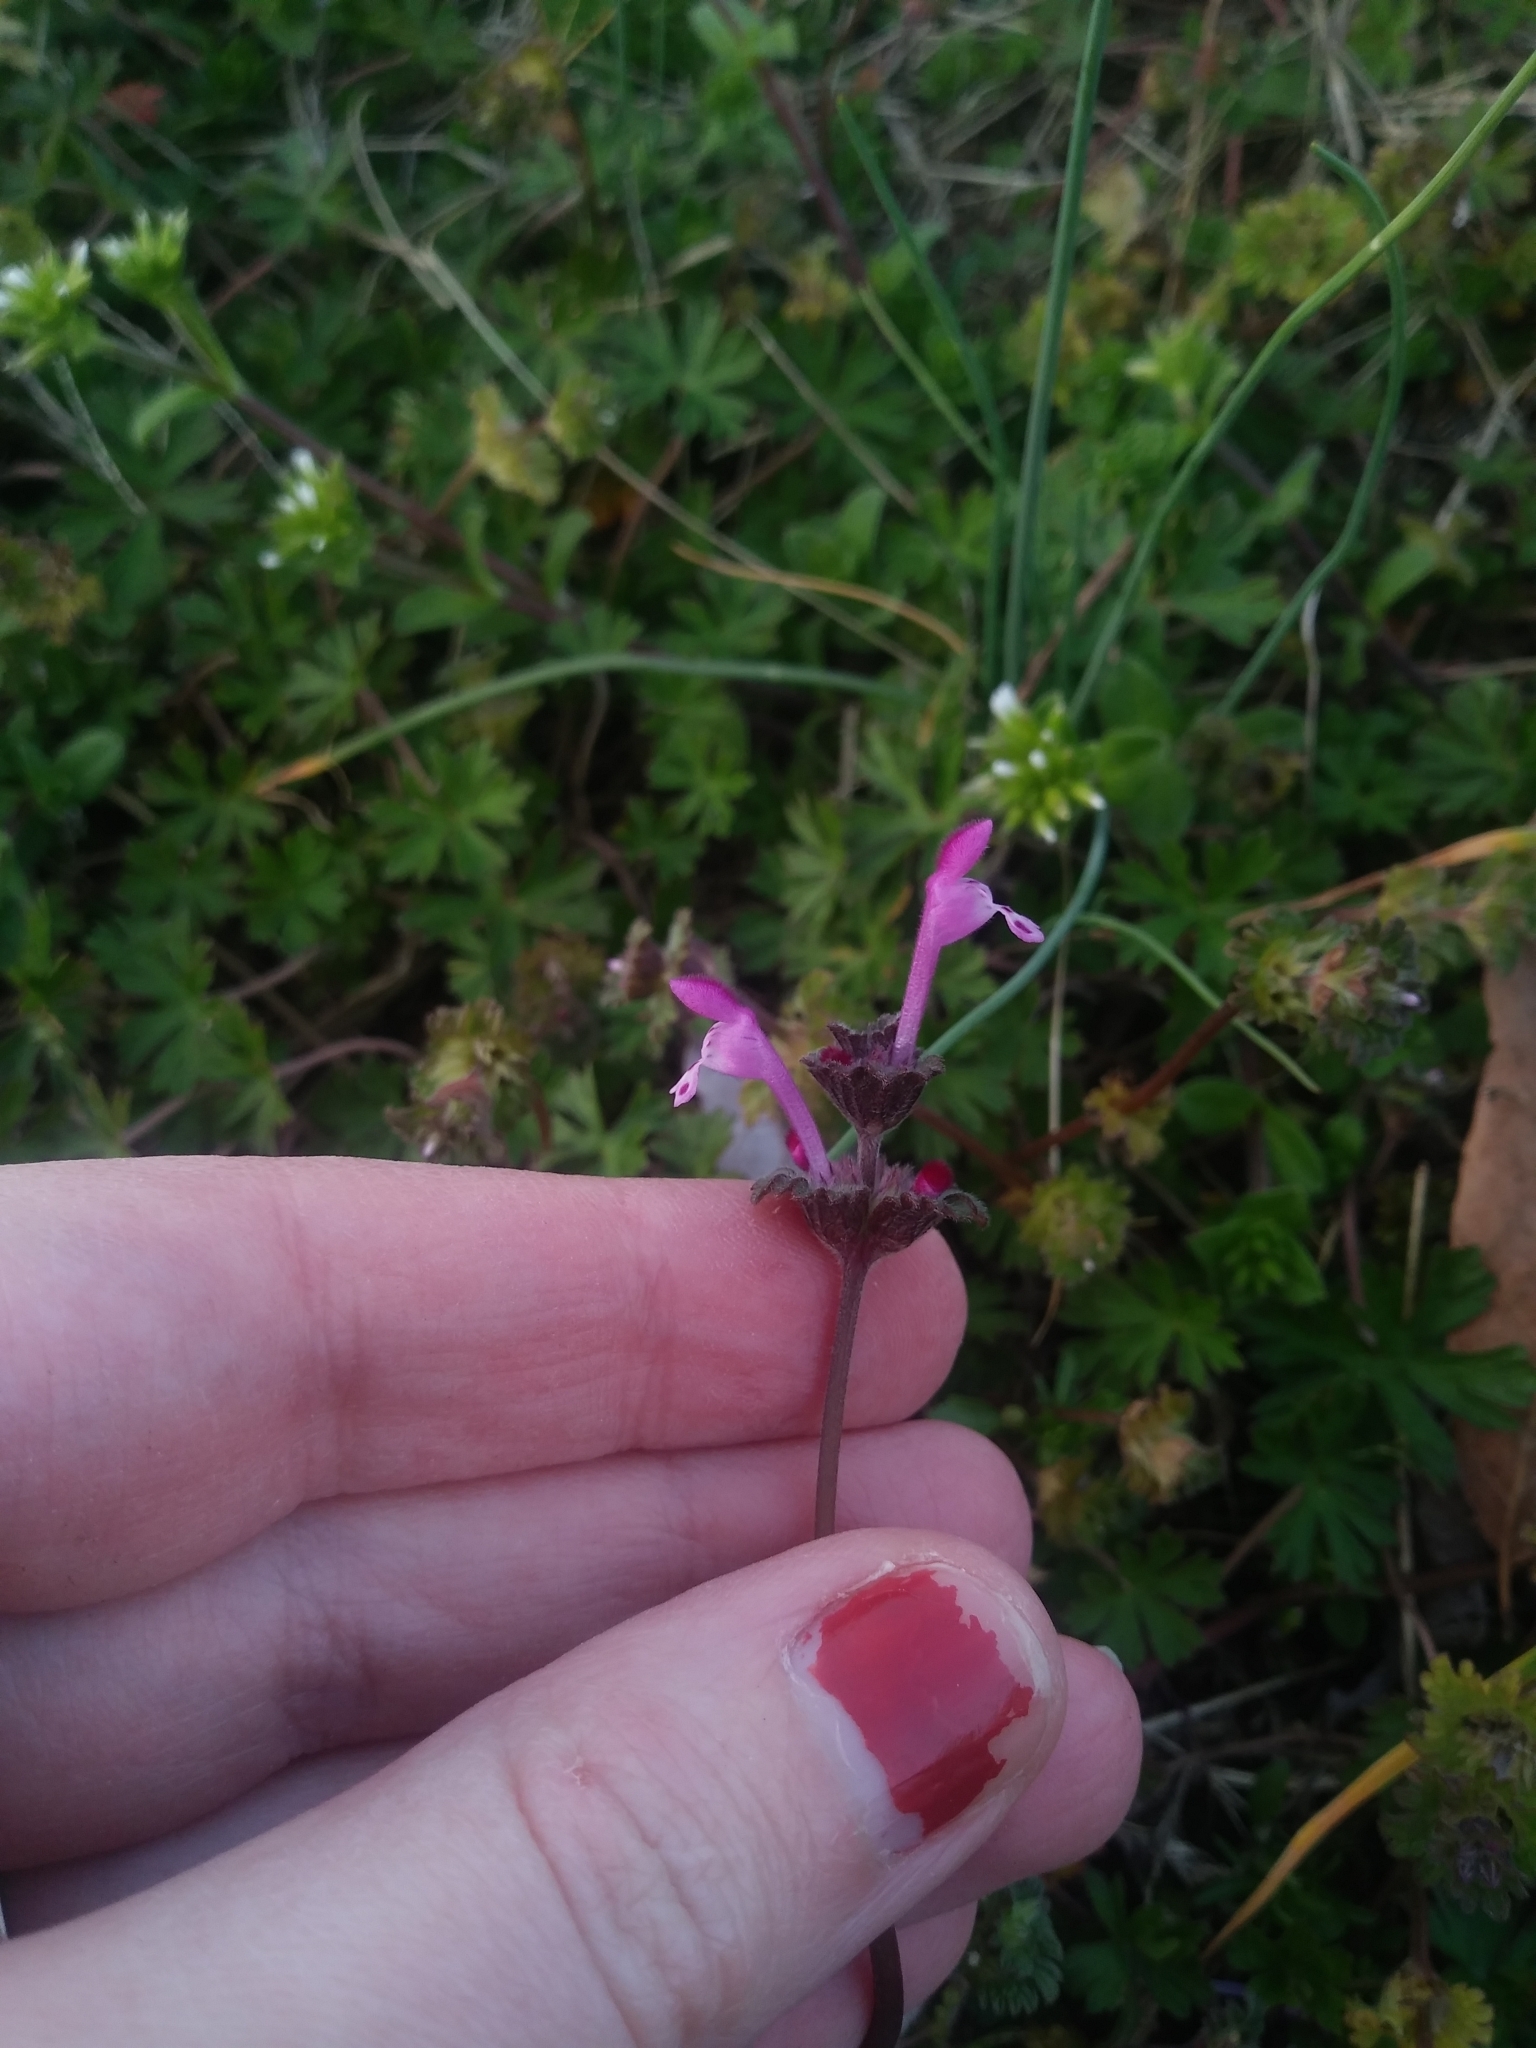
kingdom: Plantae
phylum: Tracheophyta
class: Magnoliopsida
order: Lamiales
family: Lamiaceae
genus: Lamium
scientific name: Lamium amplexicaule
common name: Henbit dead-nettle
